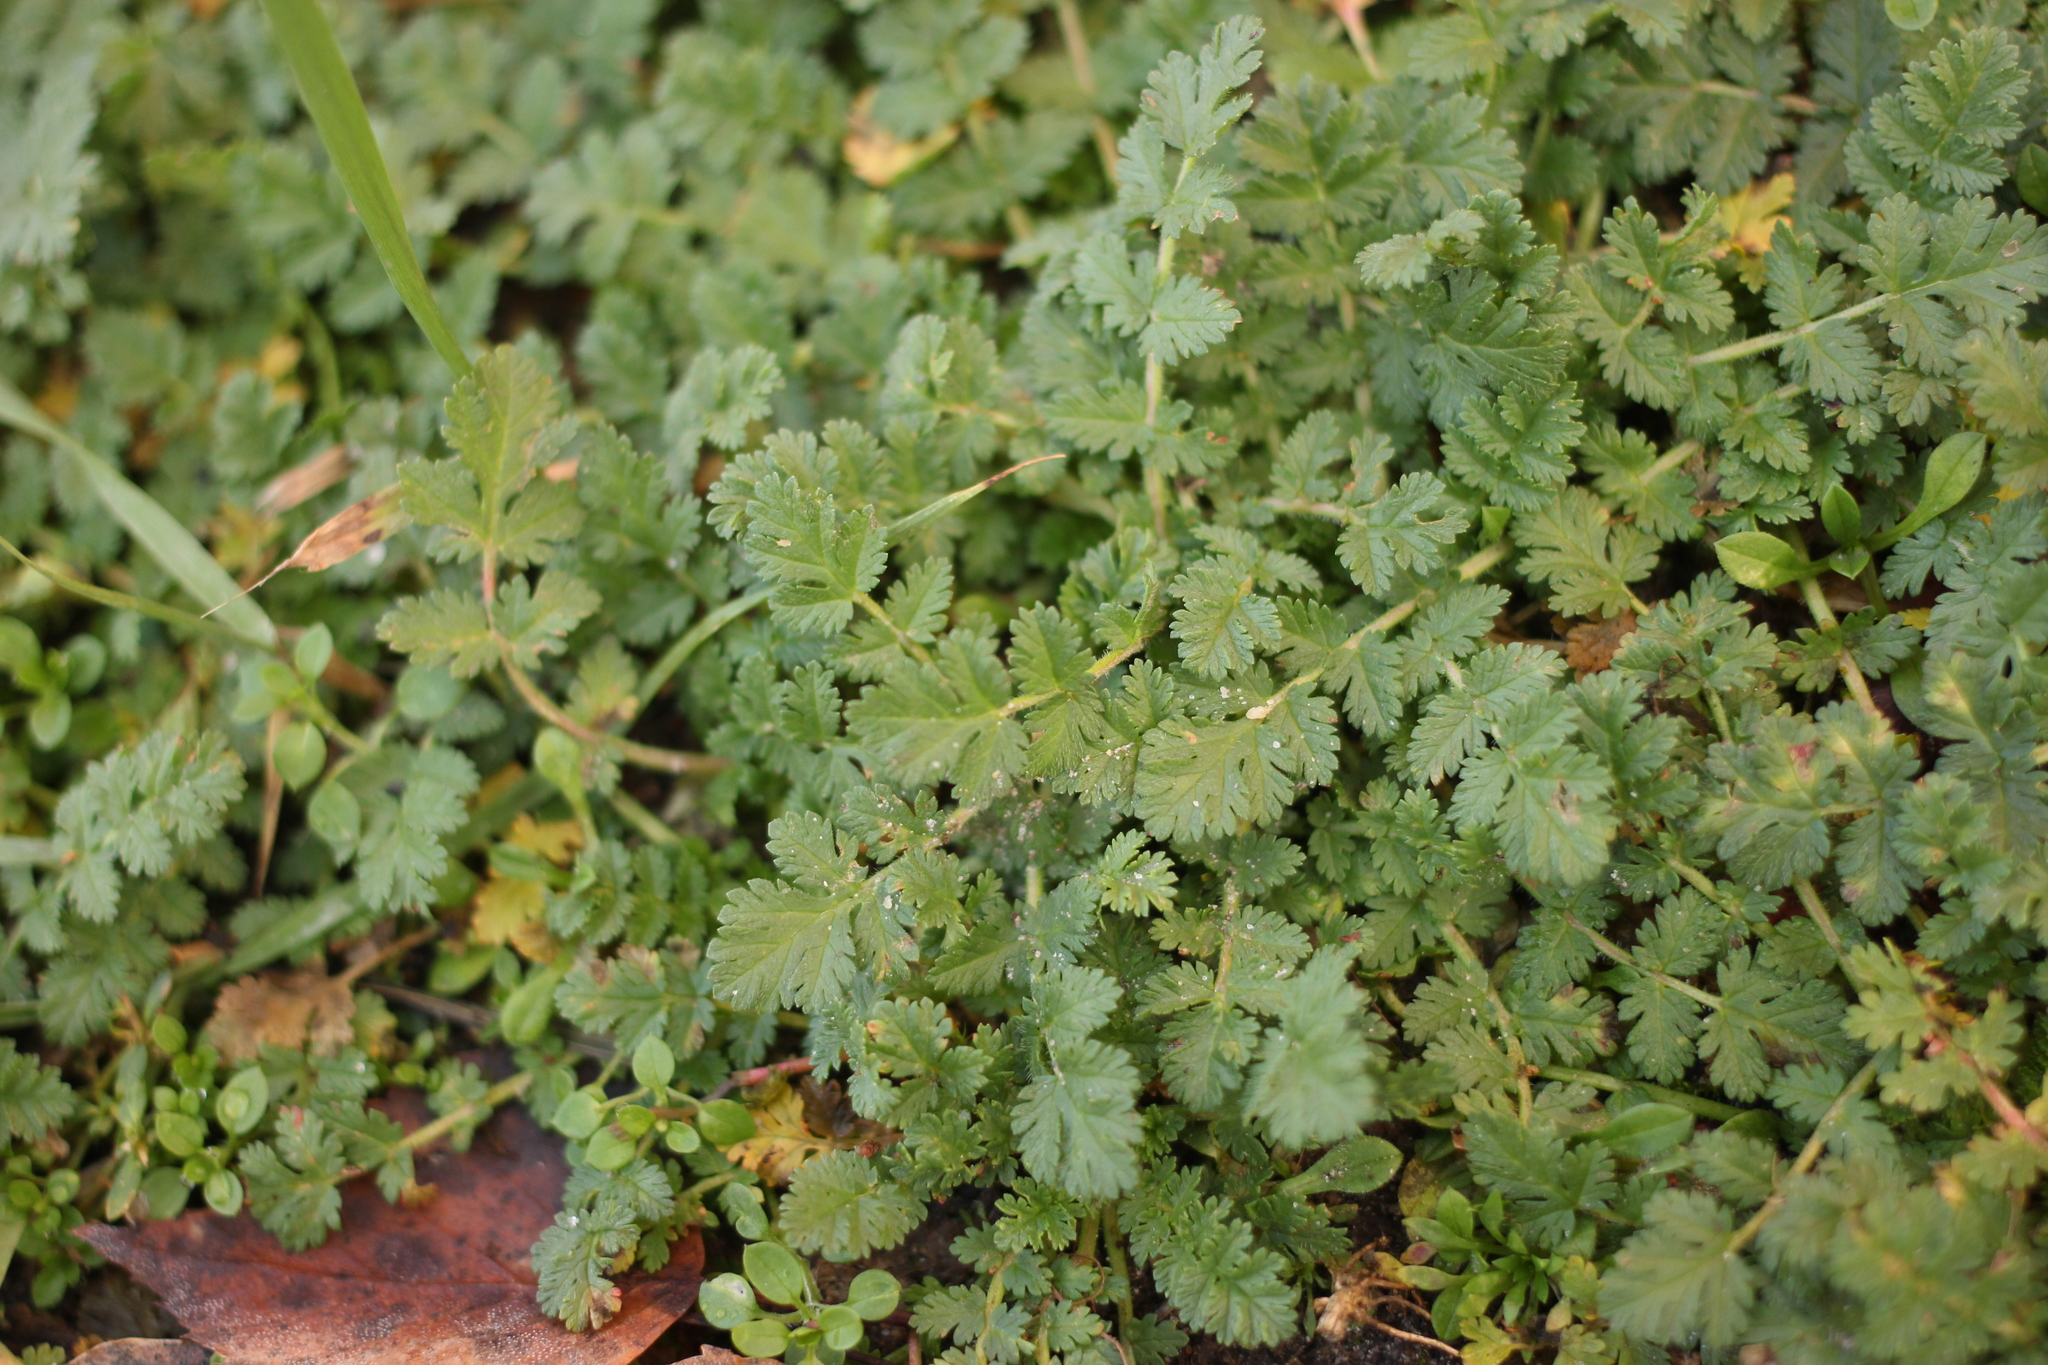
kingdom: Plantae
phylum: Tracheophyta
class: Magnoliopsida
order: Geraniales
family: Geraniaceae
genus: Erodium
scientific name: Erodium cicutarium
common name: Common stork's-bill
